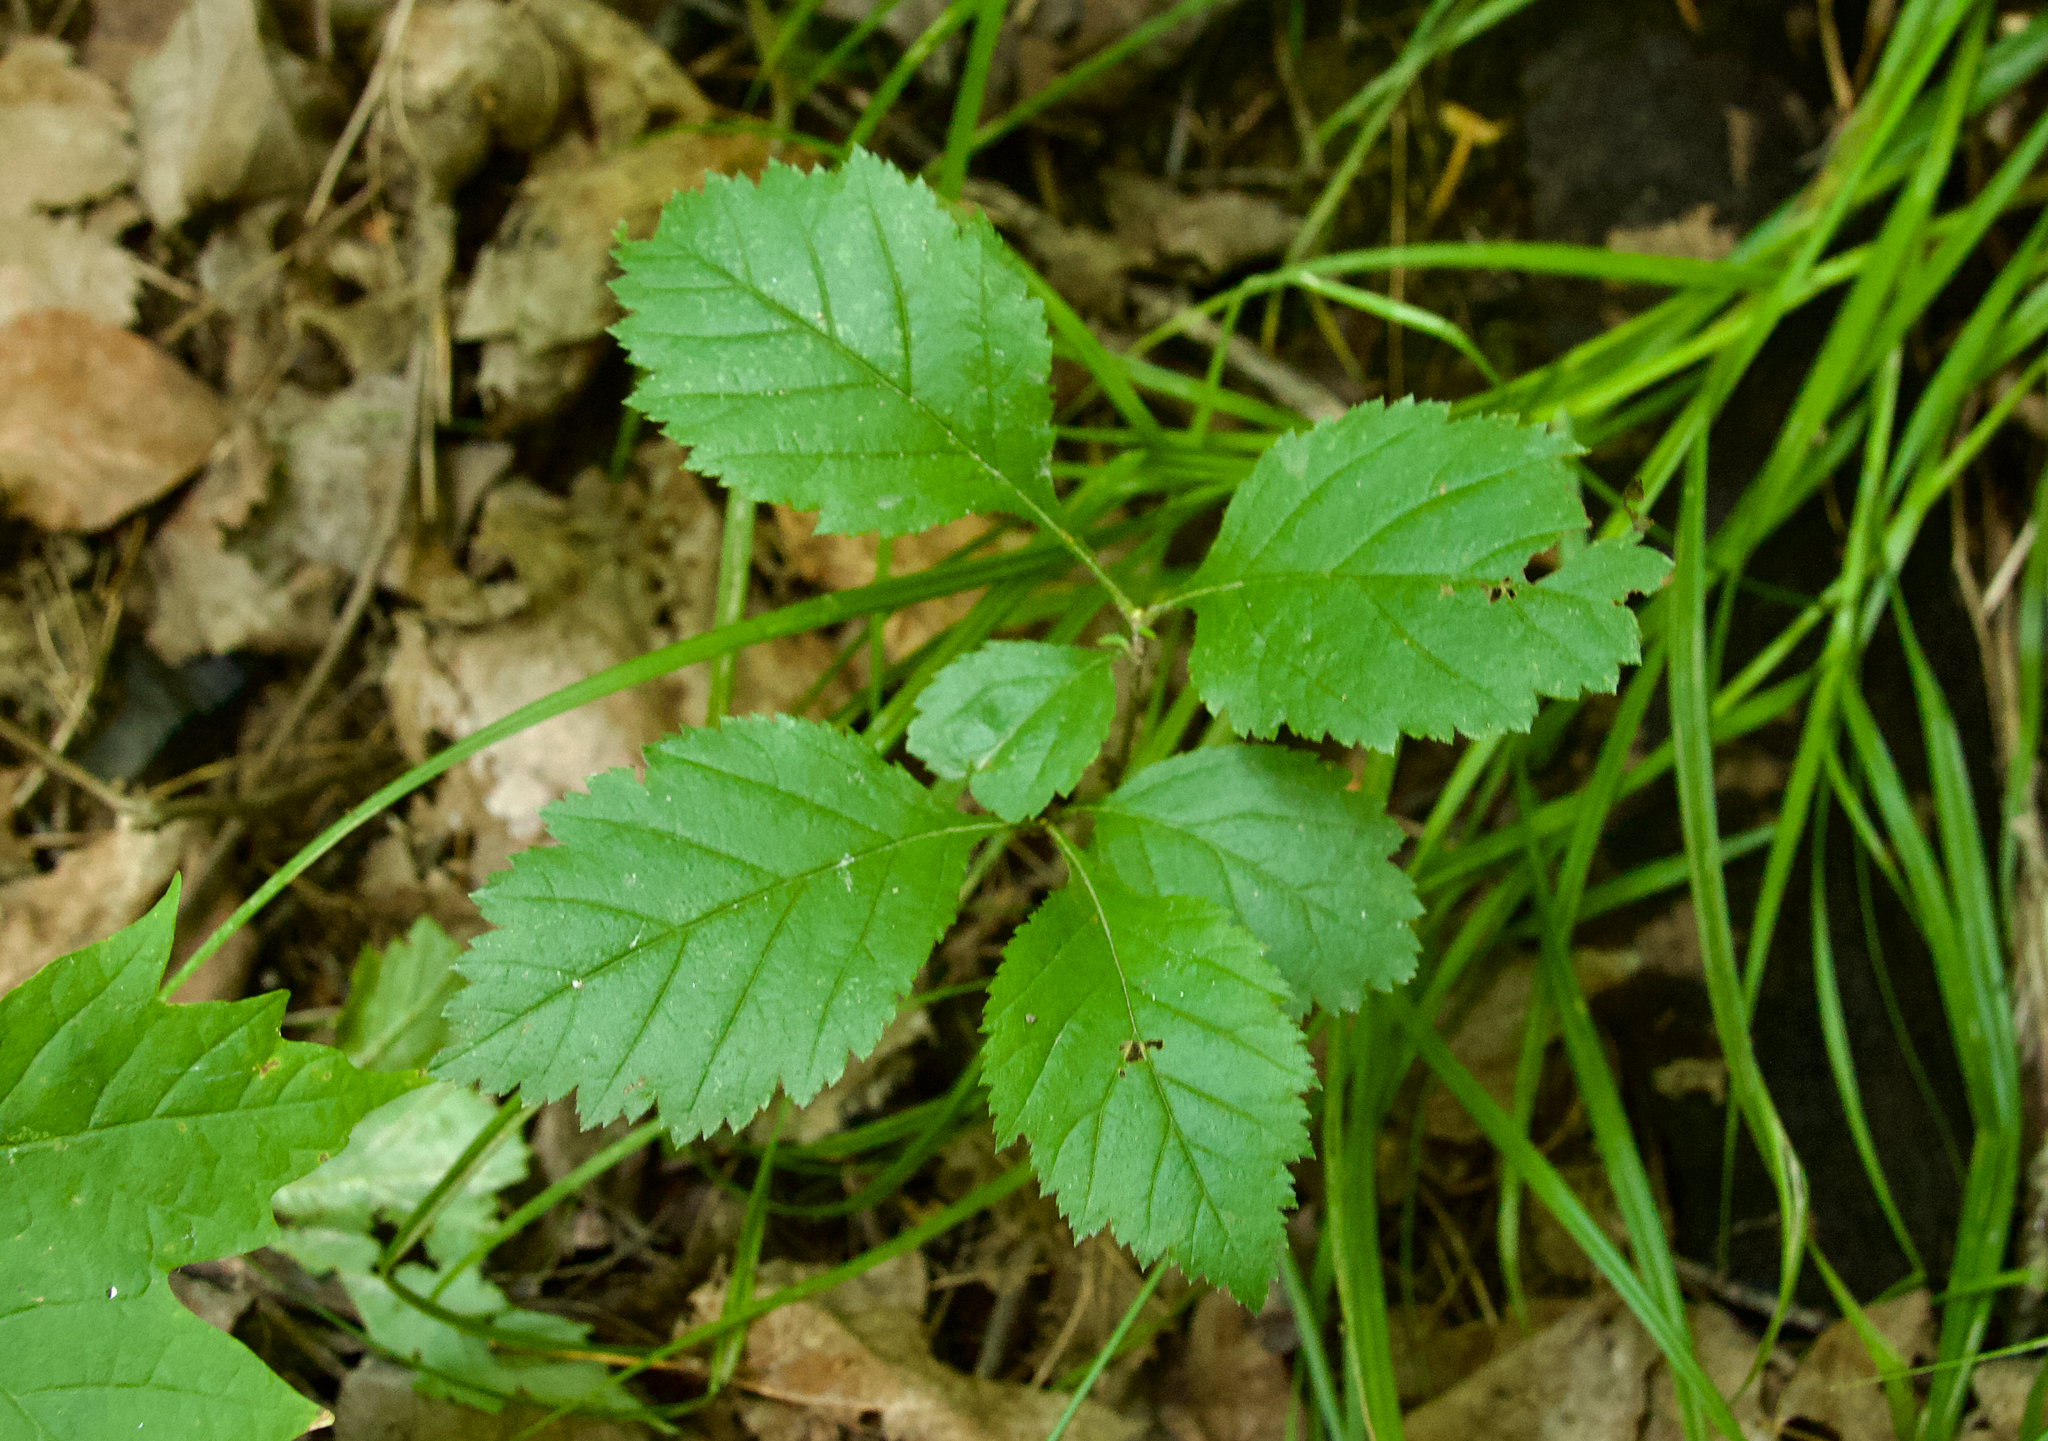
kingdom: Plantae
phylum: Tracheophyta
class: Magnoliopsida
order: Rosales
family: Rosaceae
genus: Crataegus
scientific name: Crataegus
